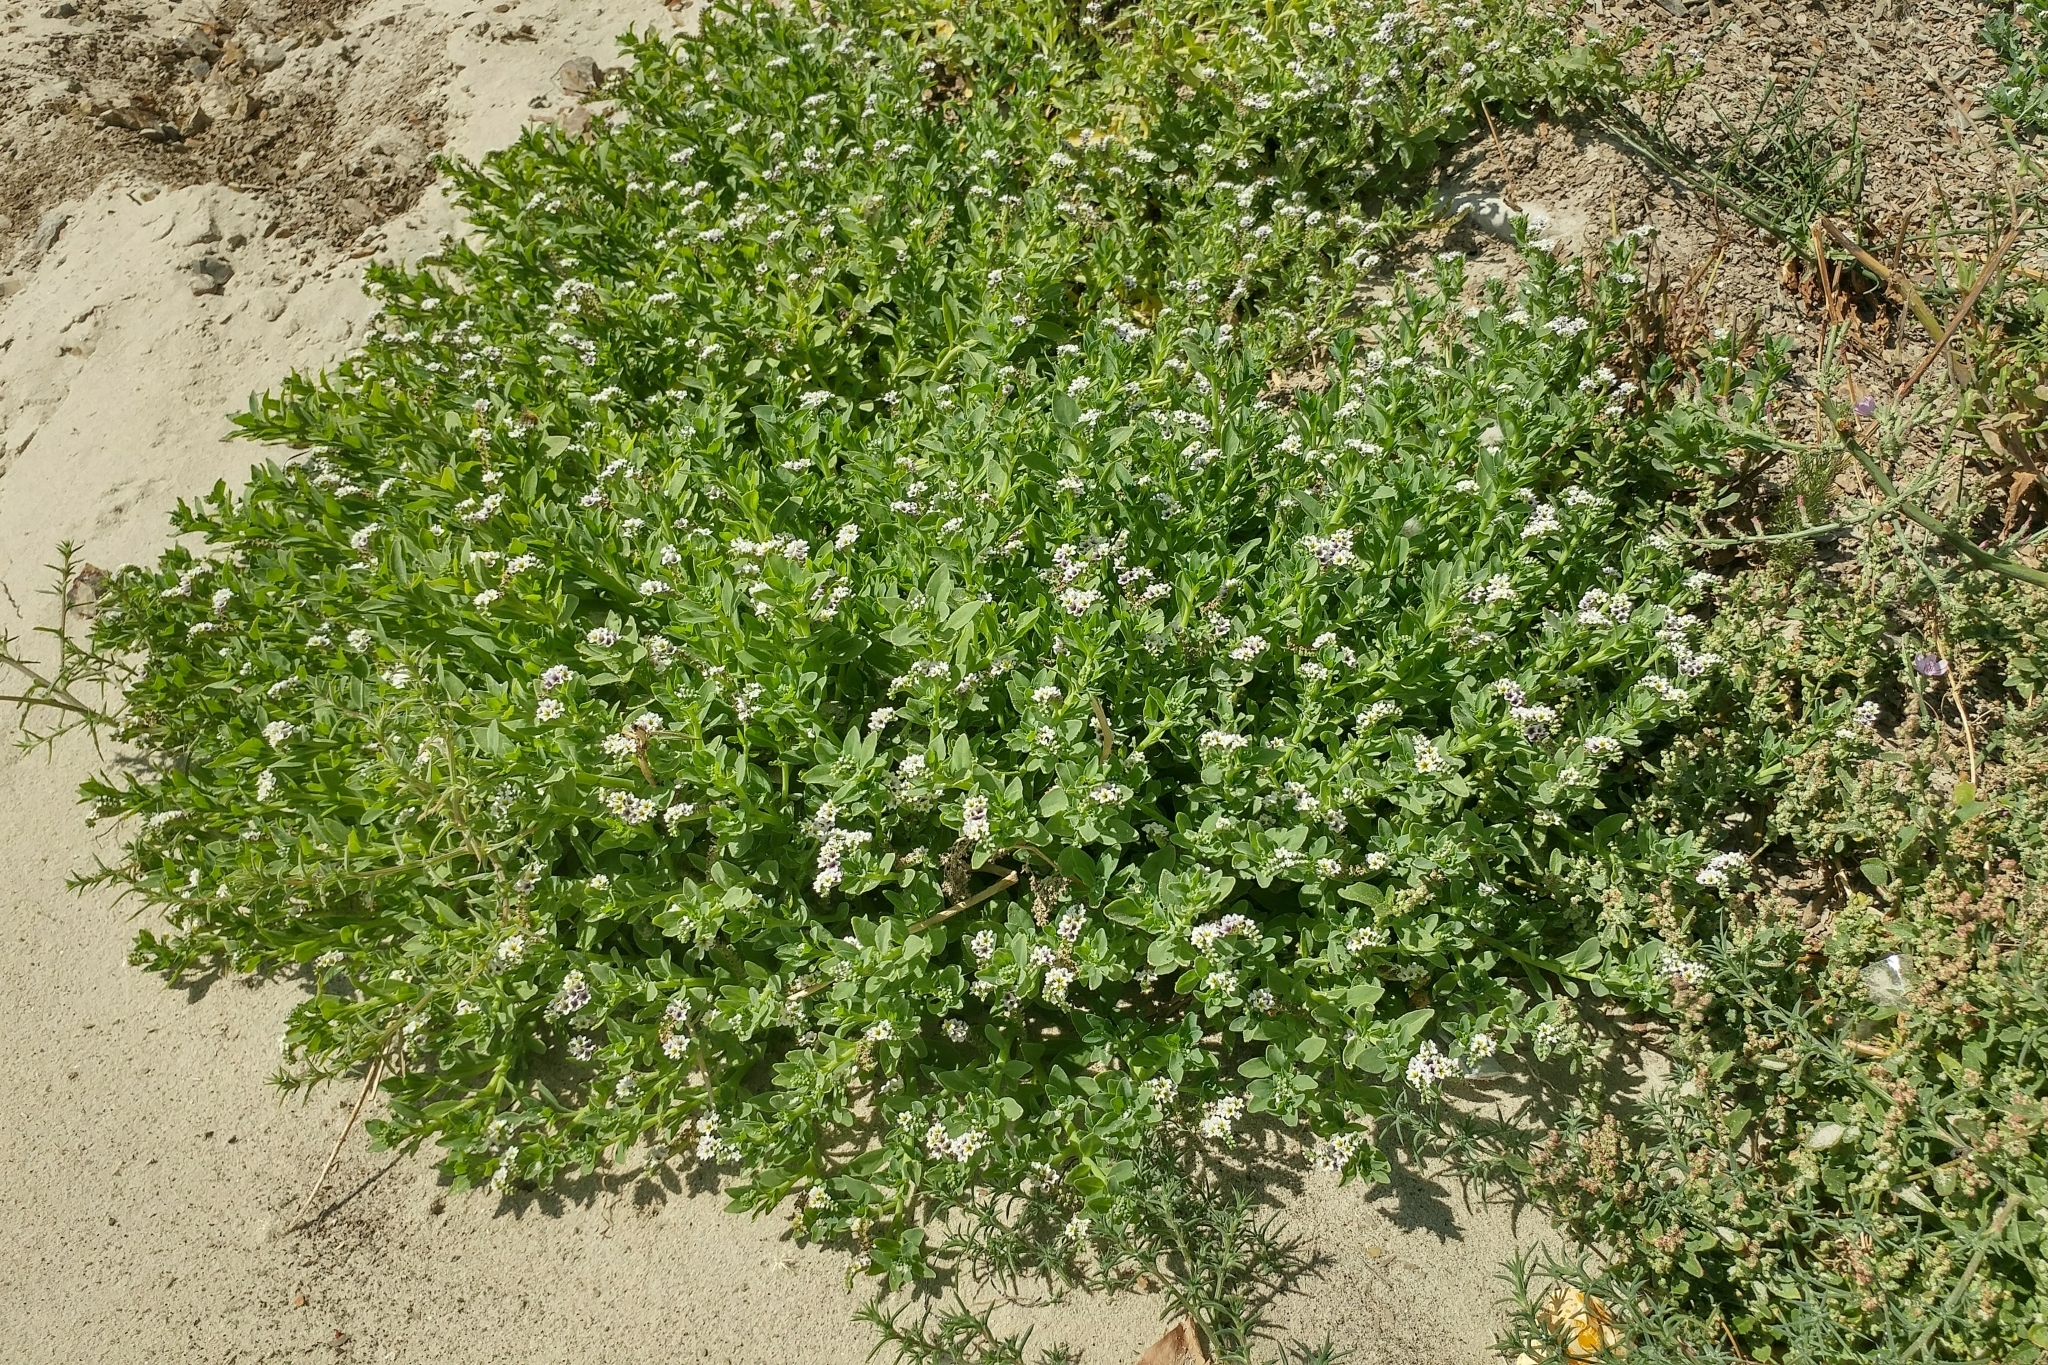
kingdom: Plantae
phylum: Tracheophyta
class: Magnoliopsida
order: Boraginales
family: Heliotropiaceae
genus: Heliotropium
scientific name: Heliotropium curassavicum
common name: Seaside heliotrope
